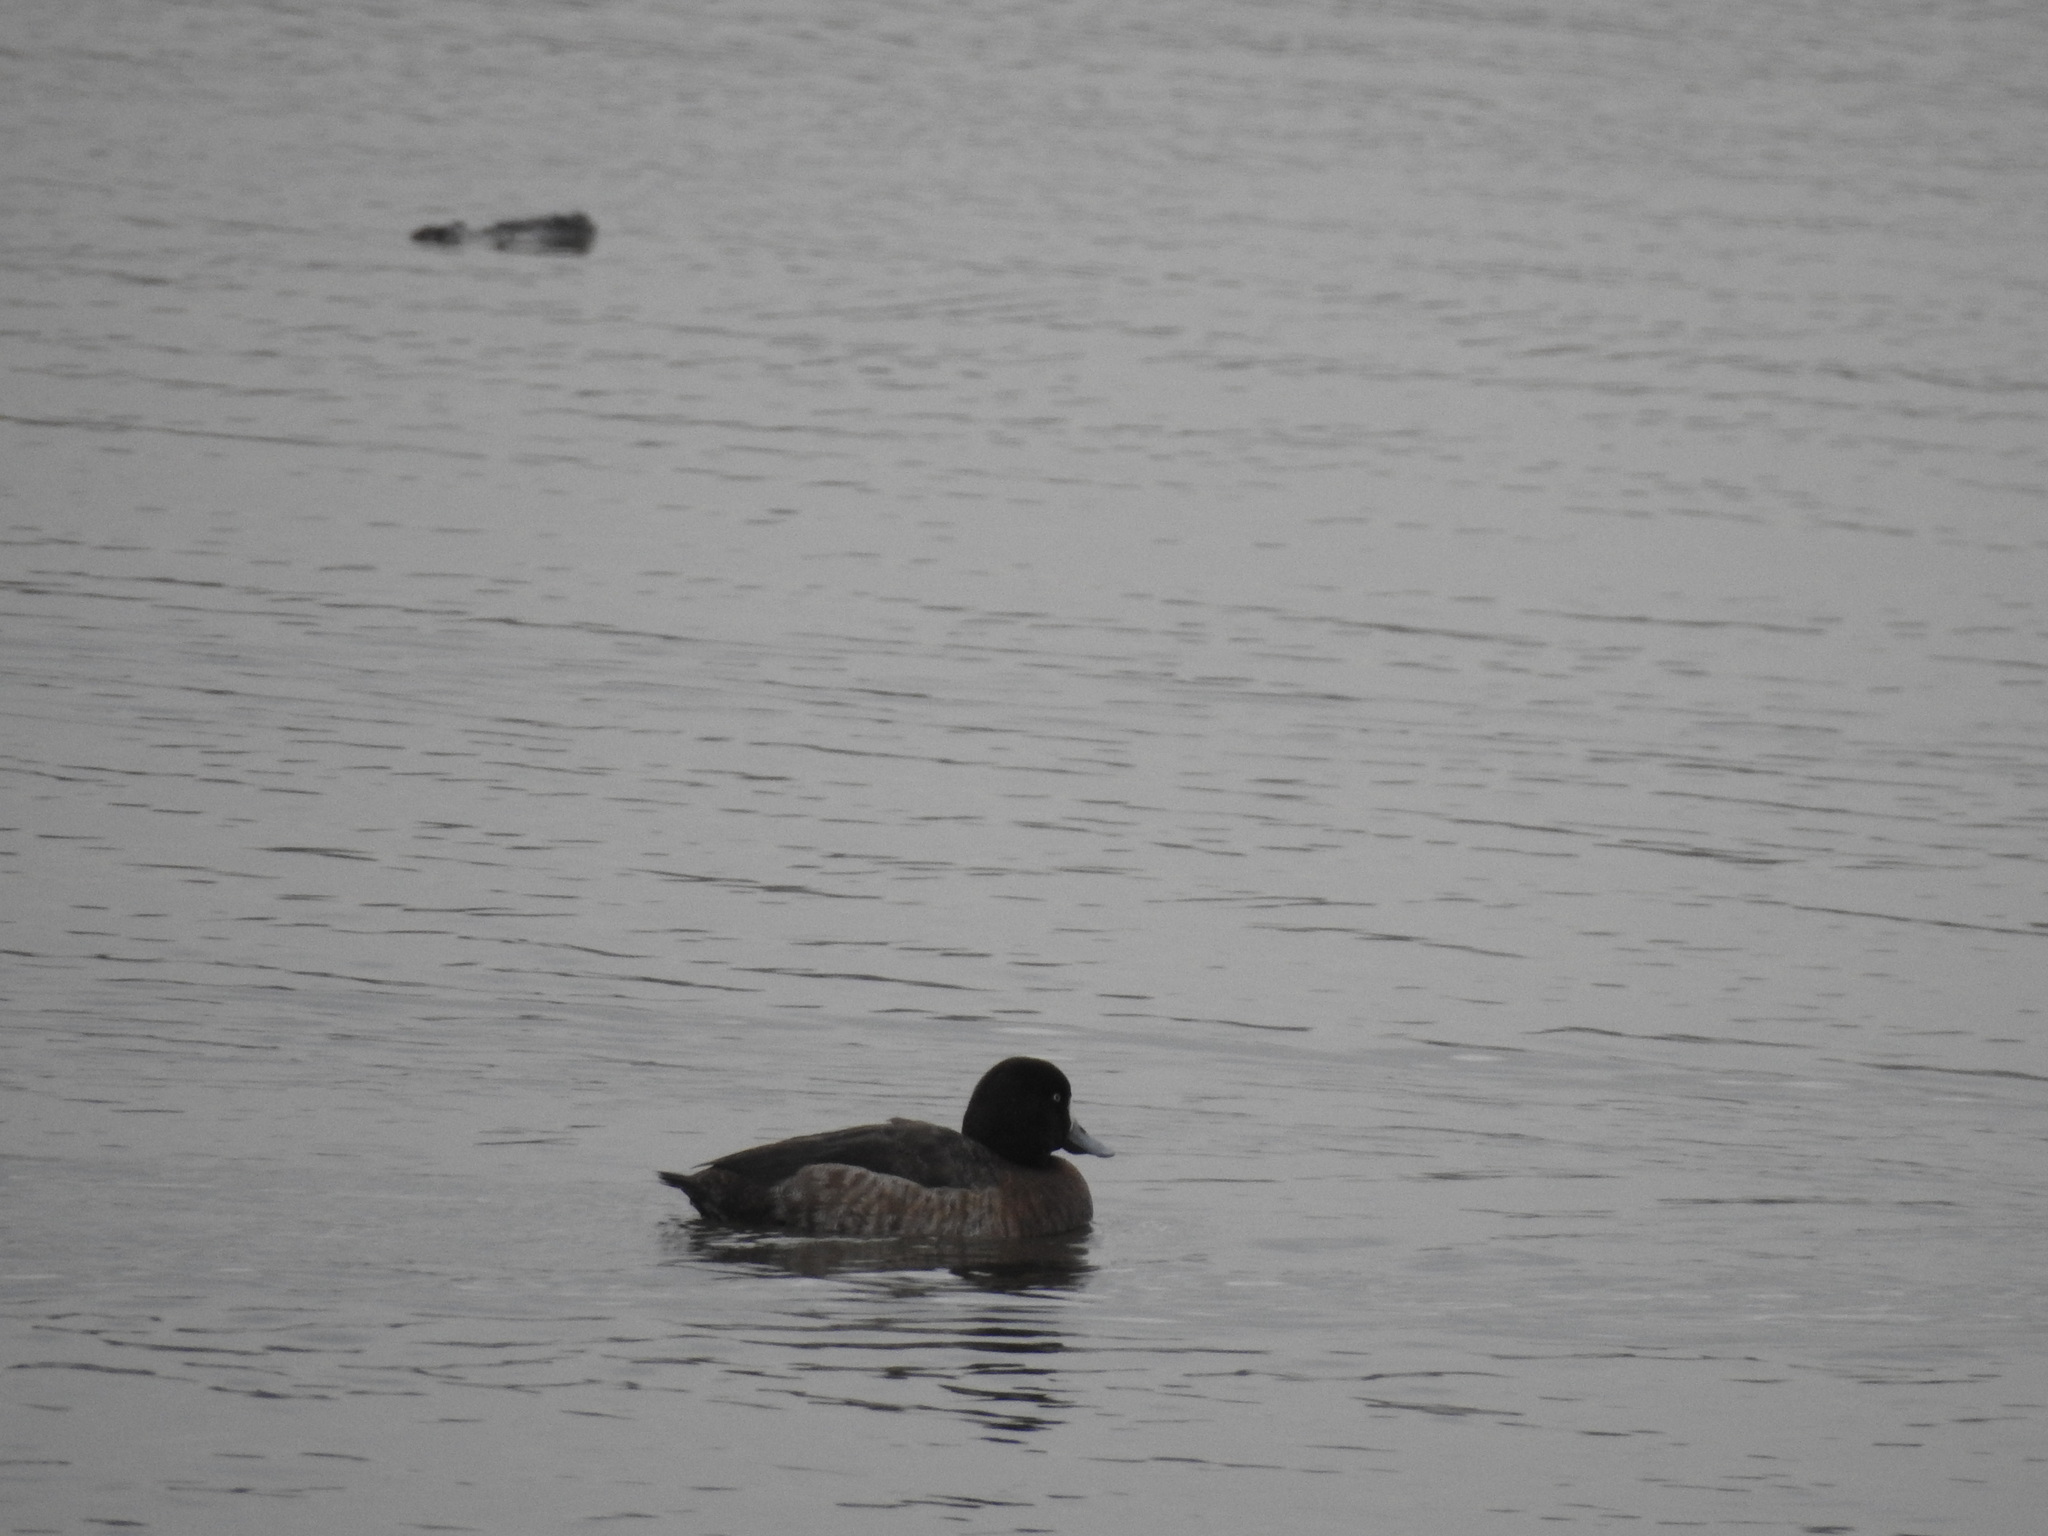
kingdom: Animalia
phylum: Chordata
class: Aves
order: Anseriformes
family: Anatidae
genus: Aythya
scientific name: Aythya
